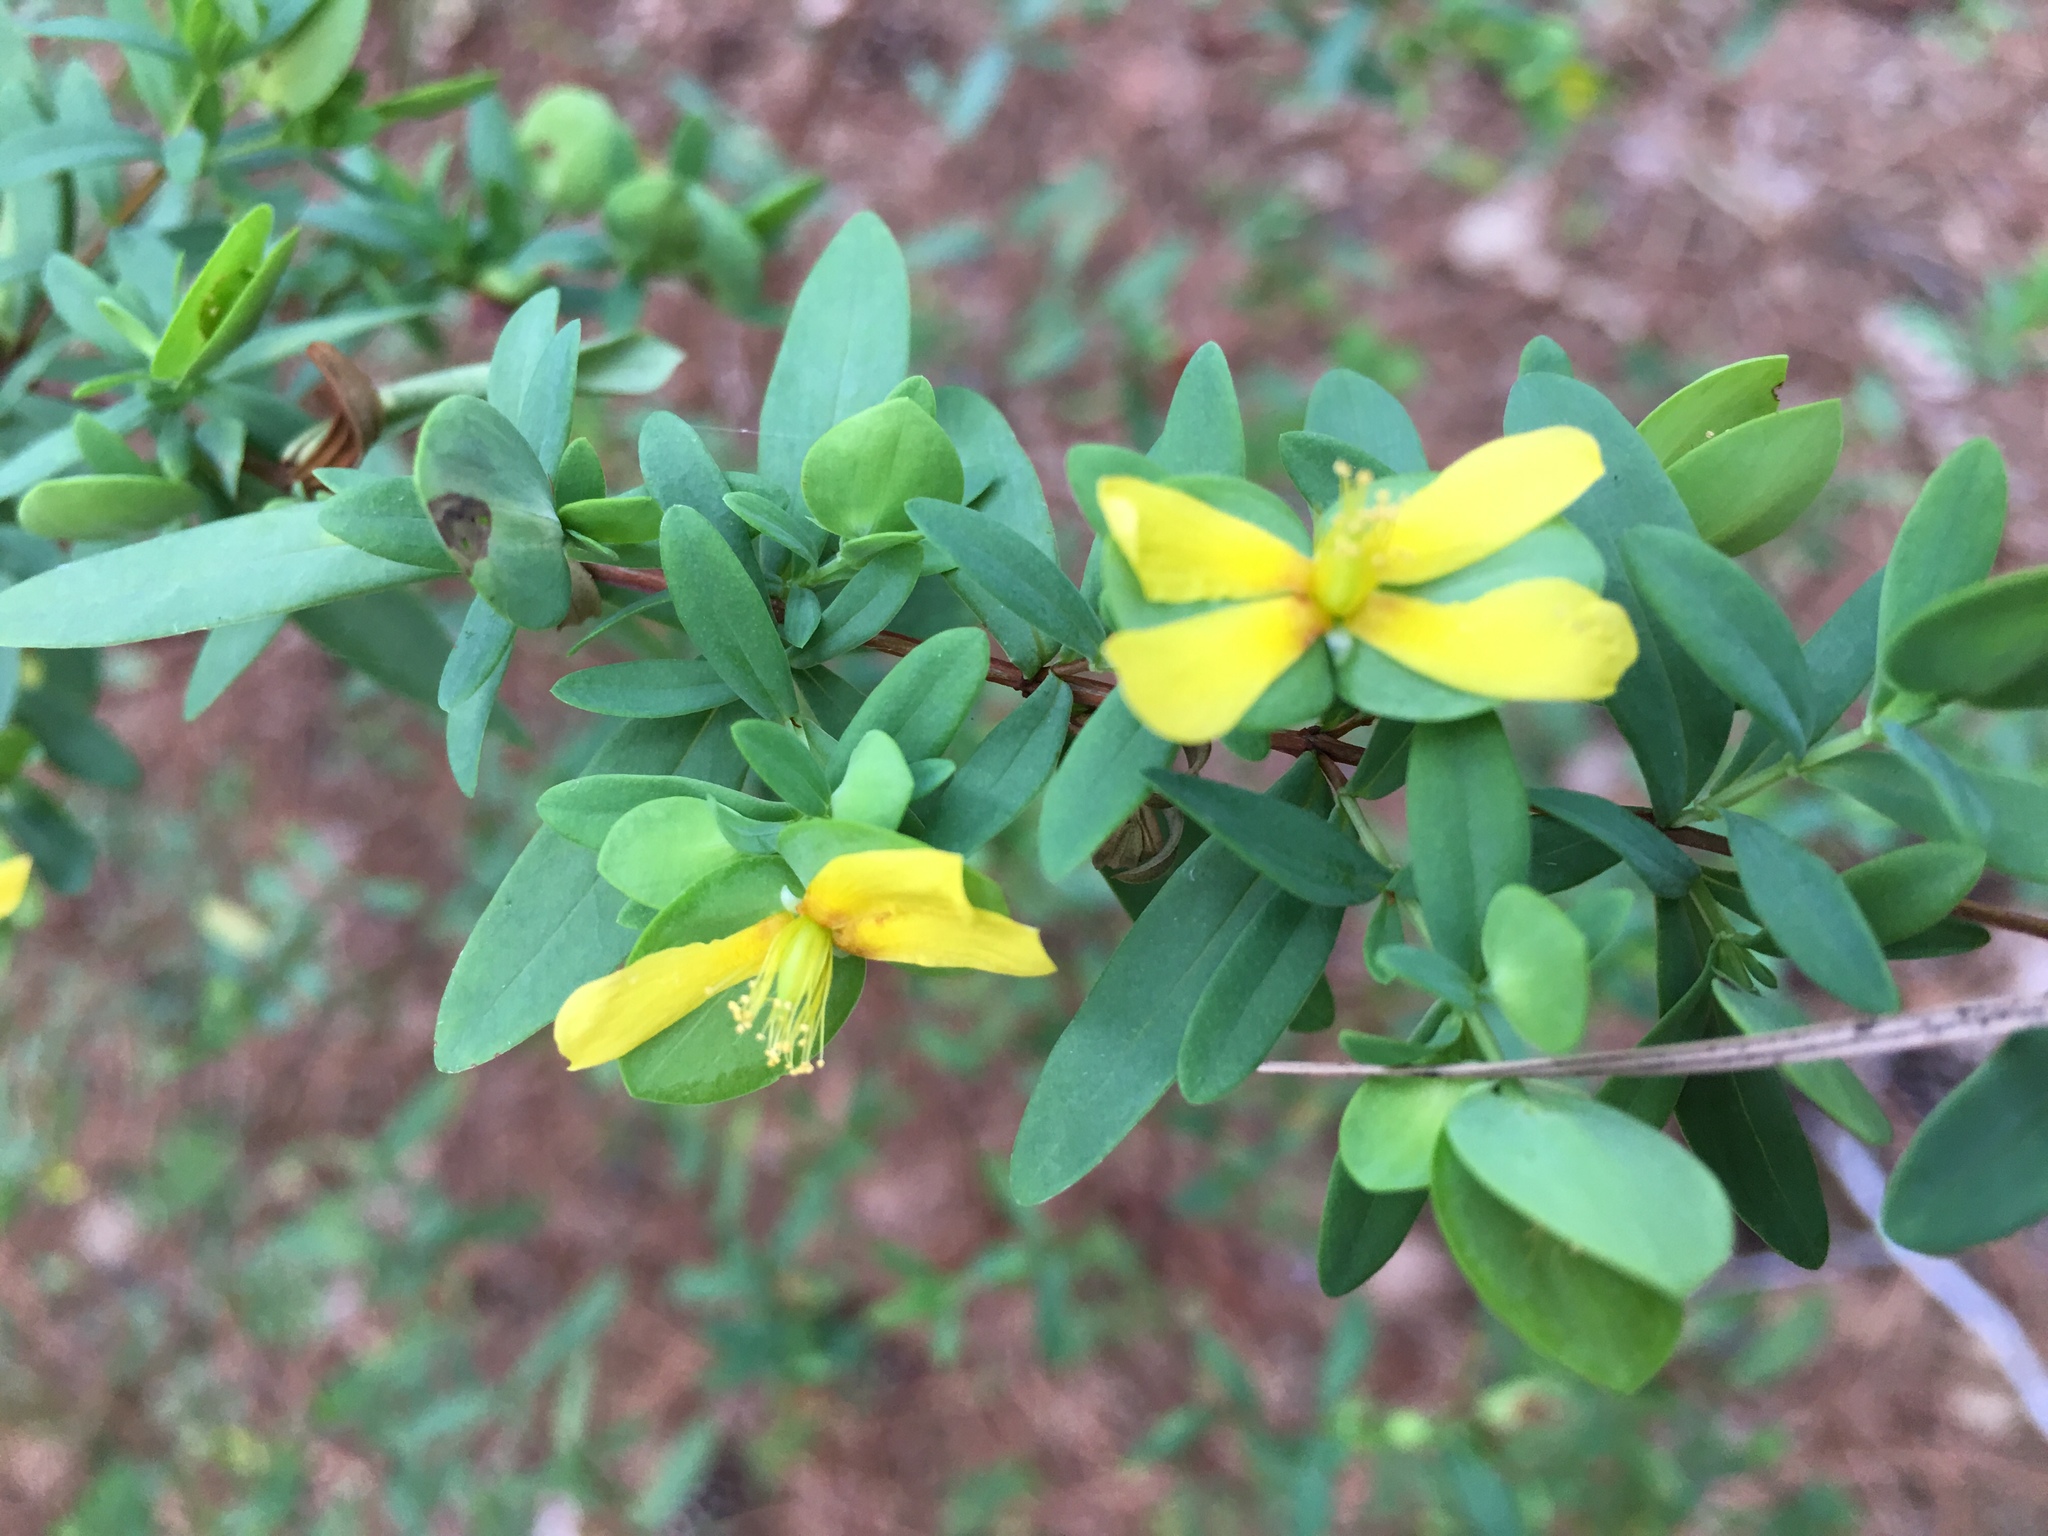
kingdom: Plantae
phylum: Tracheophyta
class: Magnoliopsida
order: Malpighiales
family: Hypericaceae
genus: Hypericum
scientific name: Hypericum hypericoides
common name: St. andrew's cross
